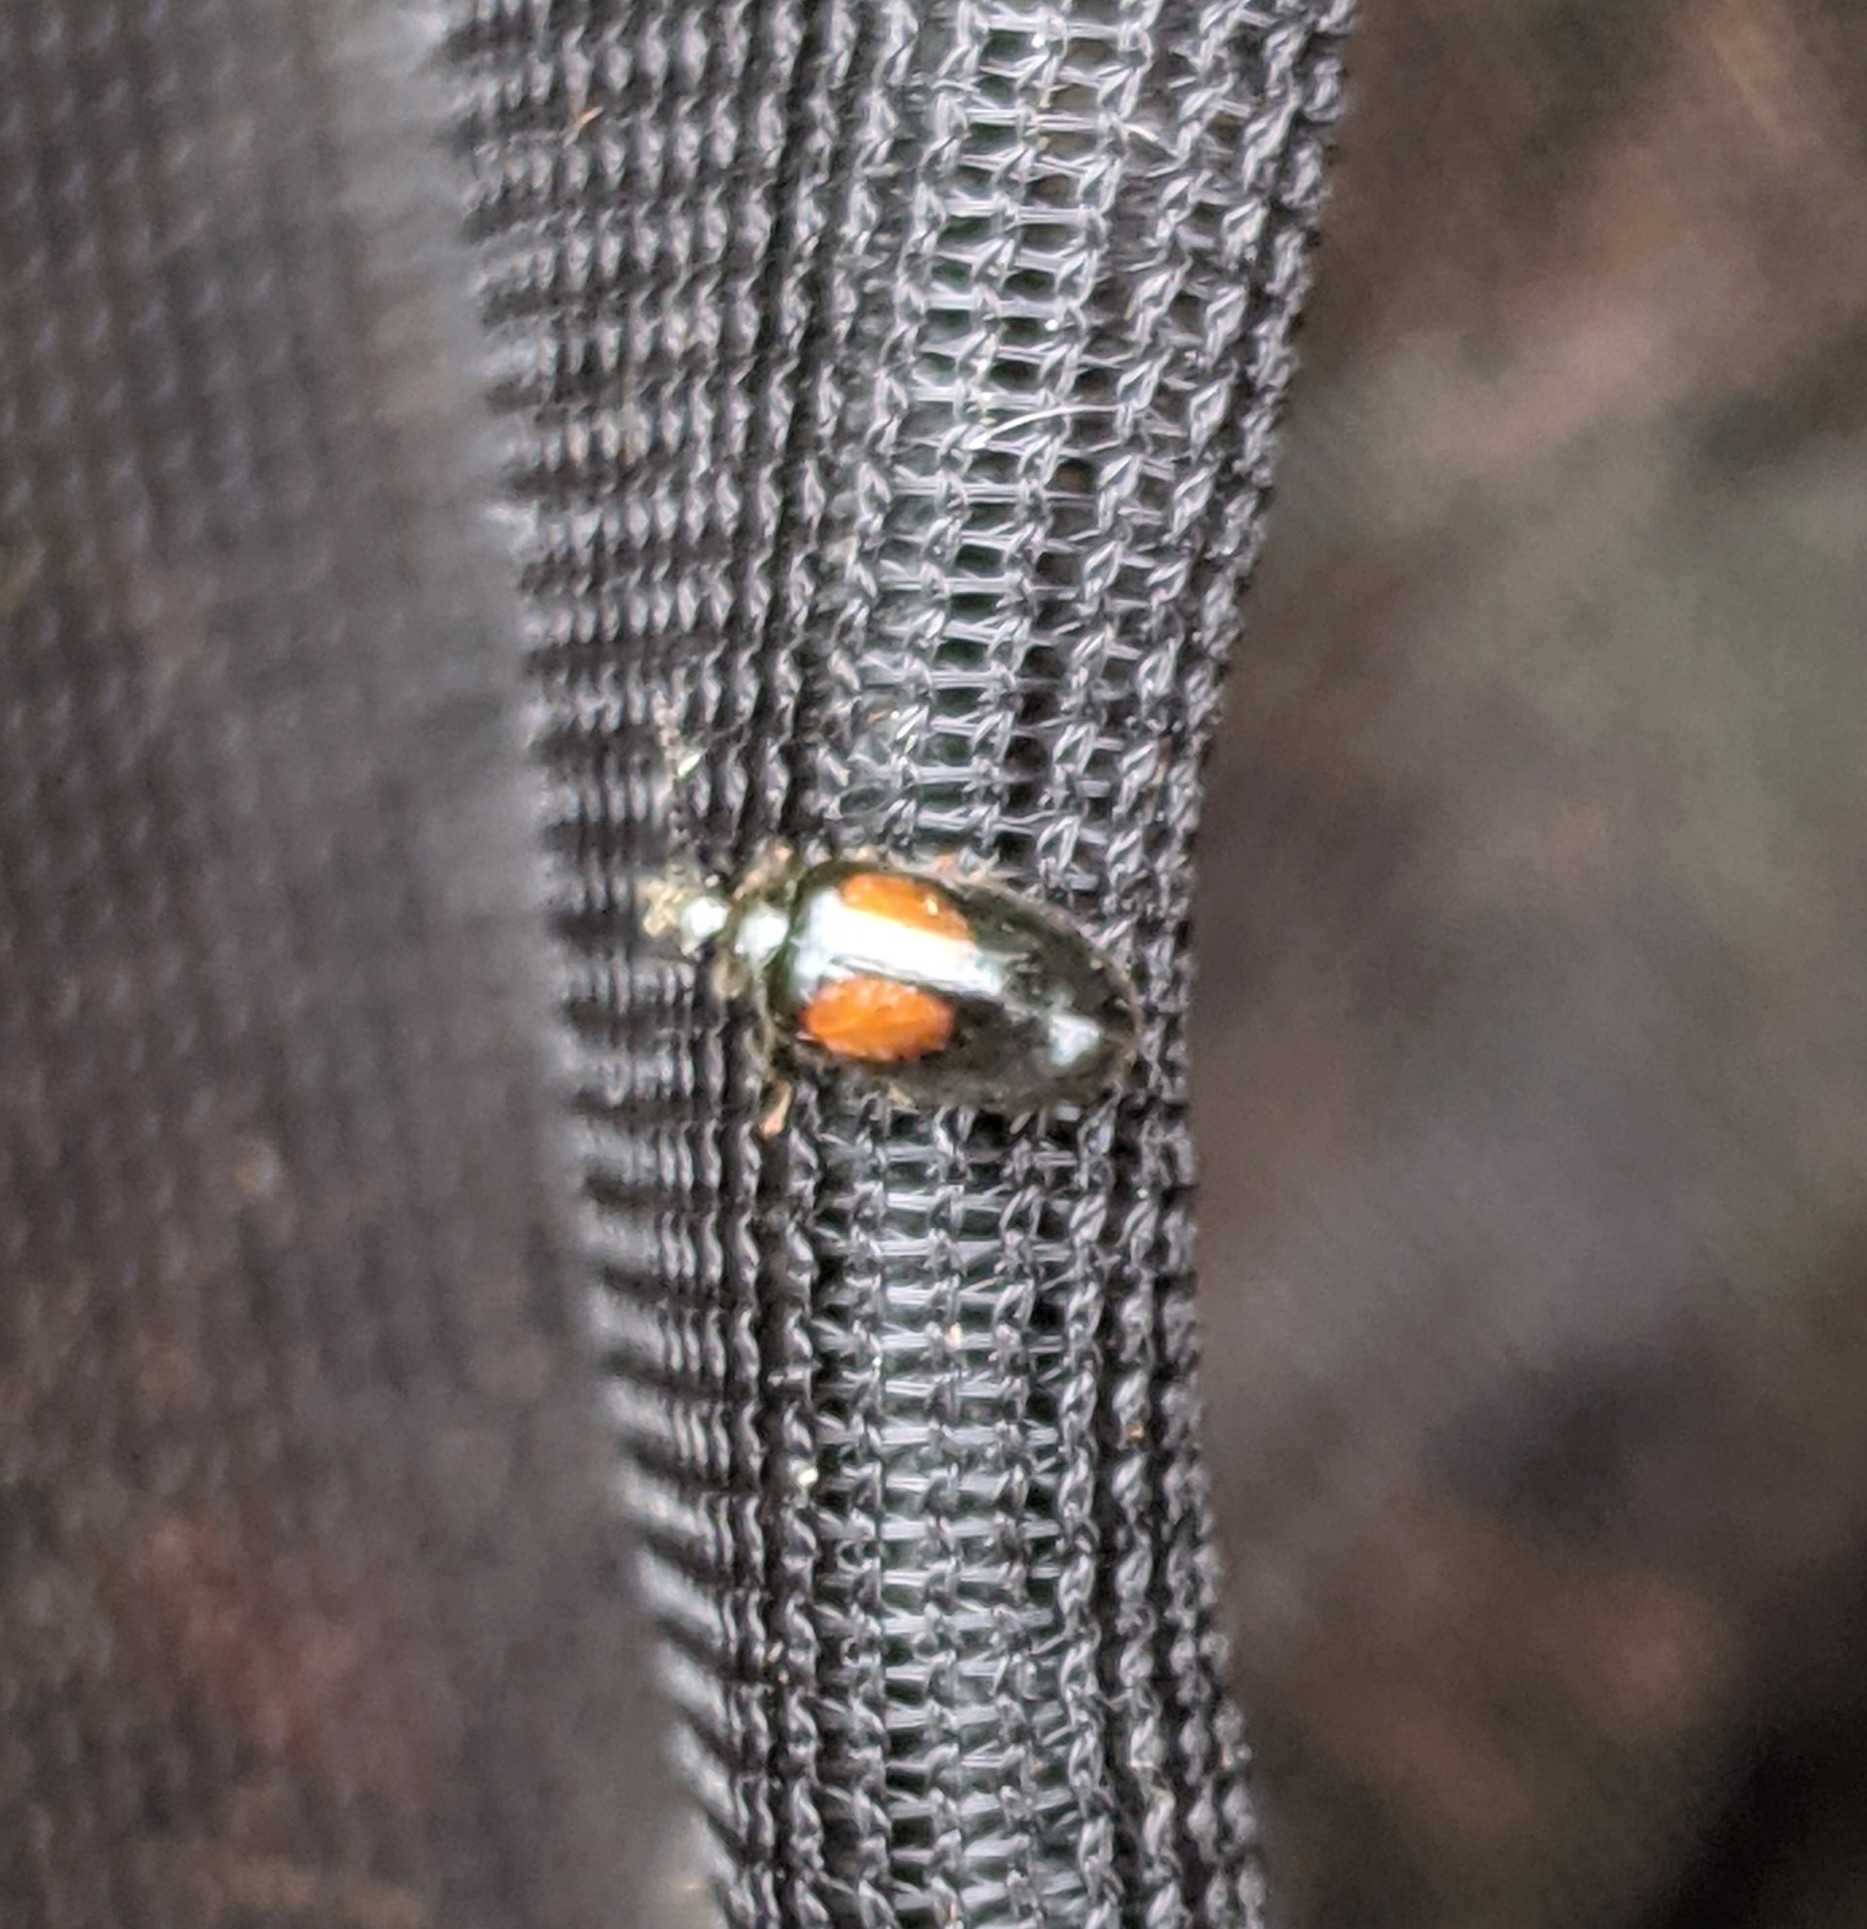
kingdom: Animalia
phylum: Arthropoda
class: Insecta
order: Coleoptera
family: Scirtidae
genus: Cyphon
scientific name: Cyphon concinnus
